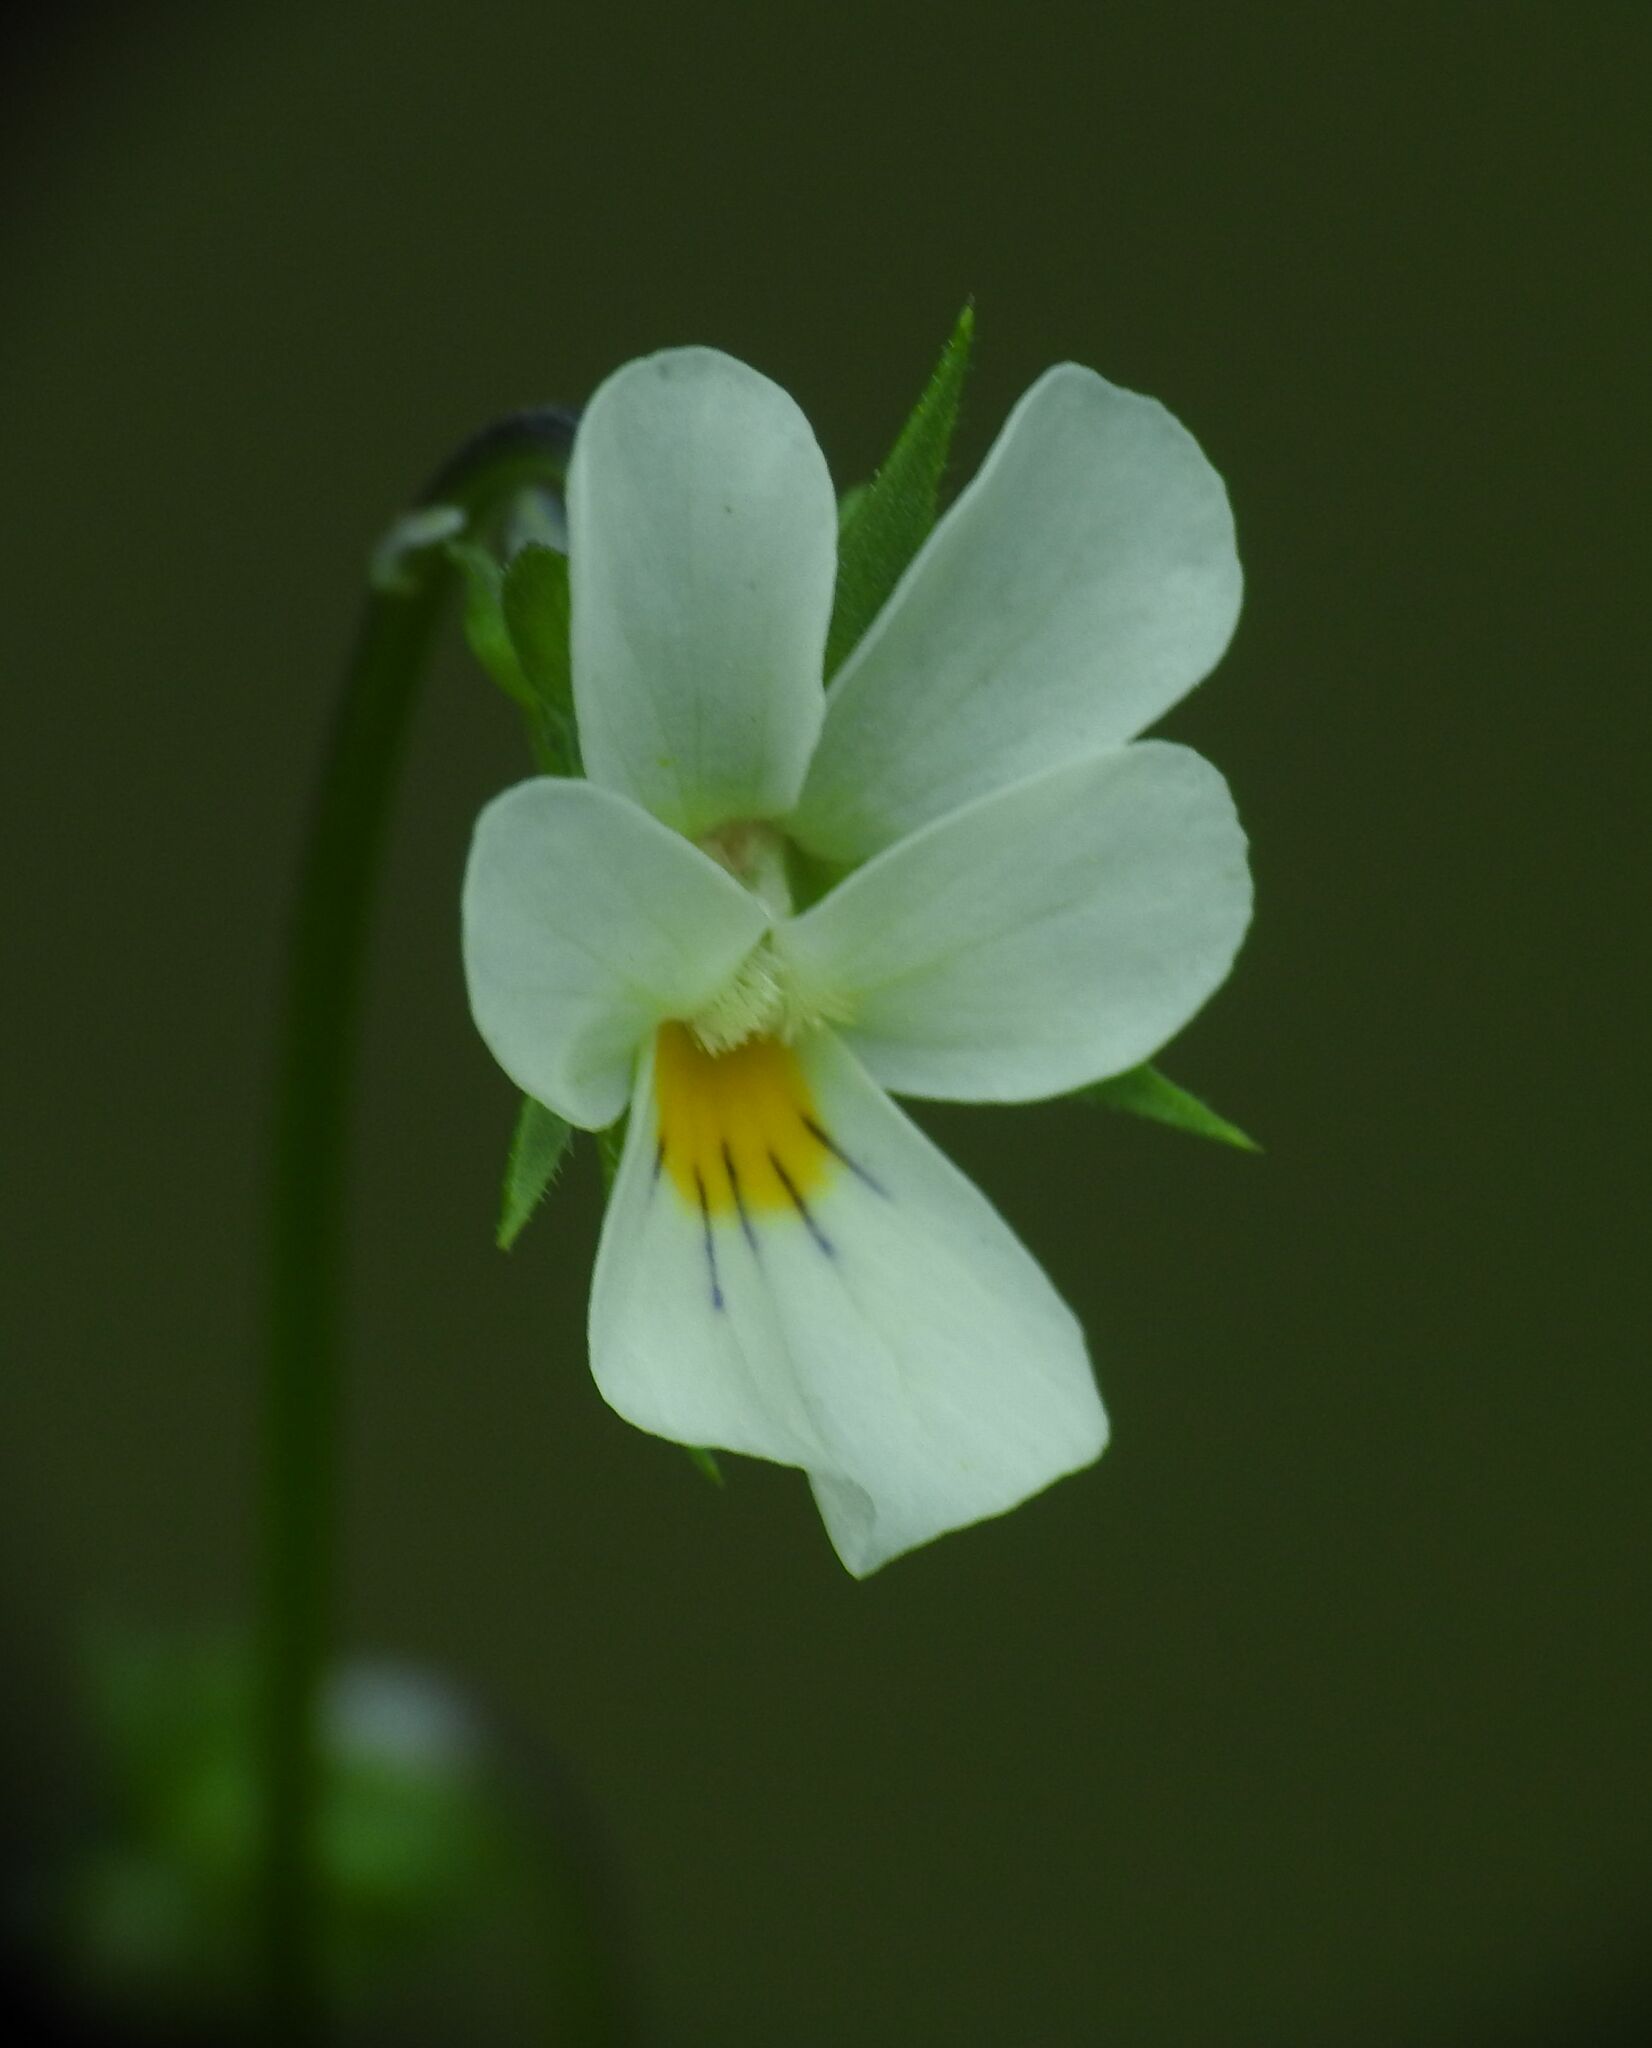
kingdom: Plantae
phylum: Tracheophyta
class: Magnoliopsida
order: Malpighiales
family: Violaceae
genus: Viola
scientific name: Viola arvensis
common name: Field pansy
